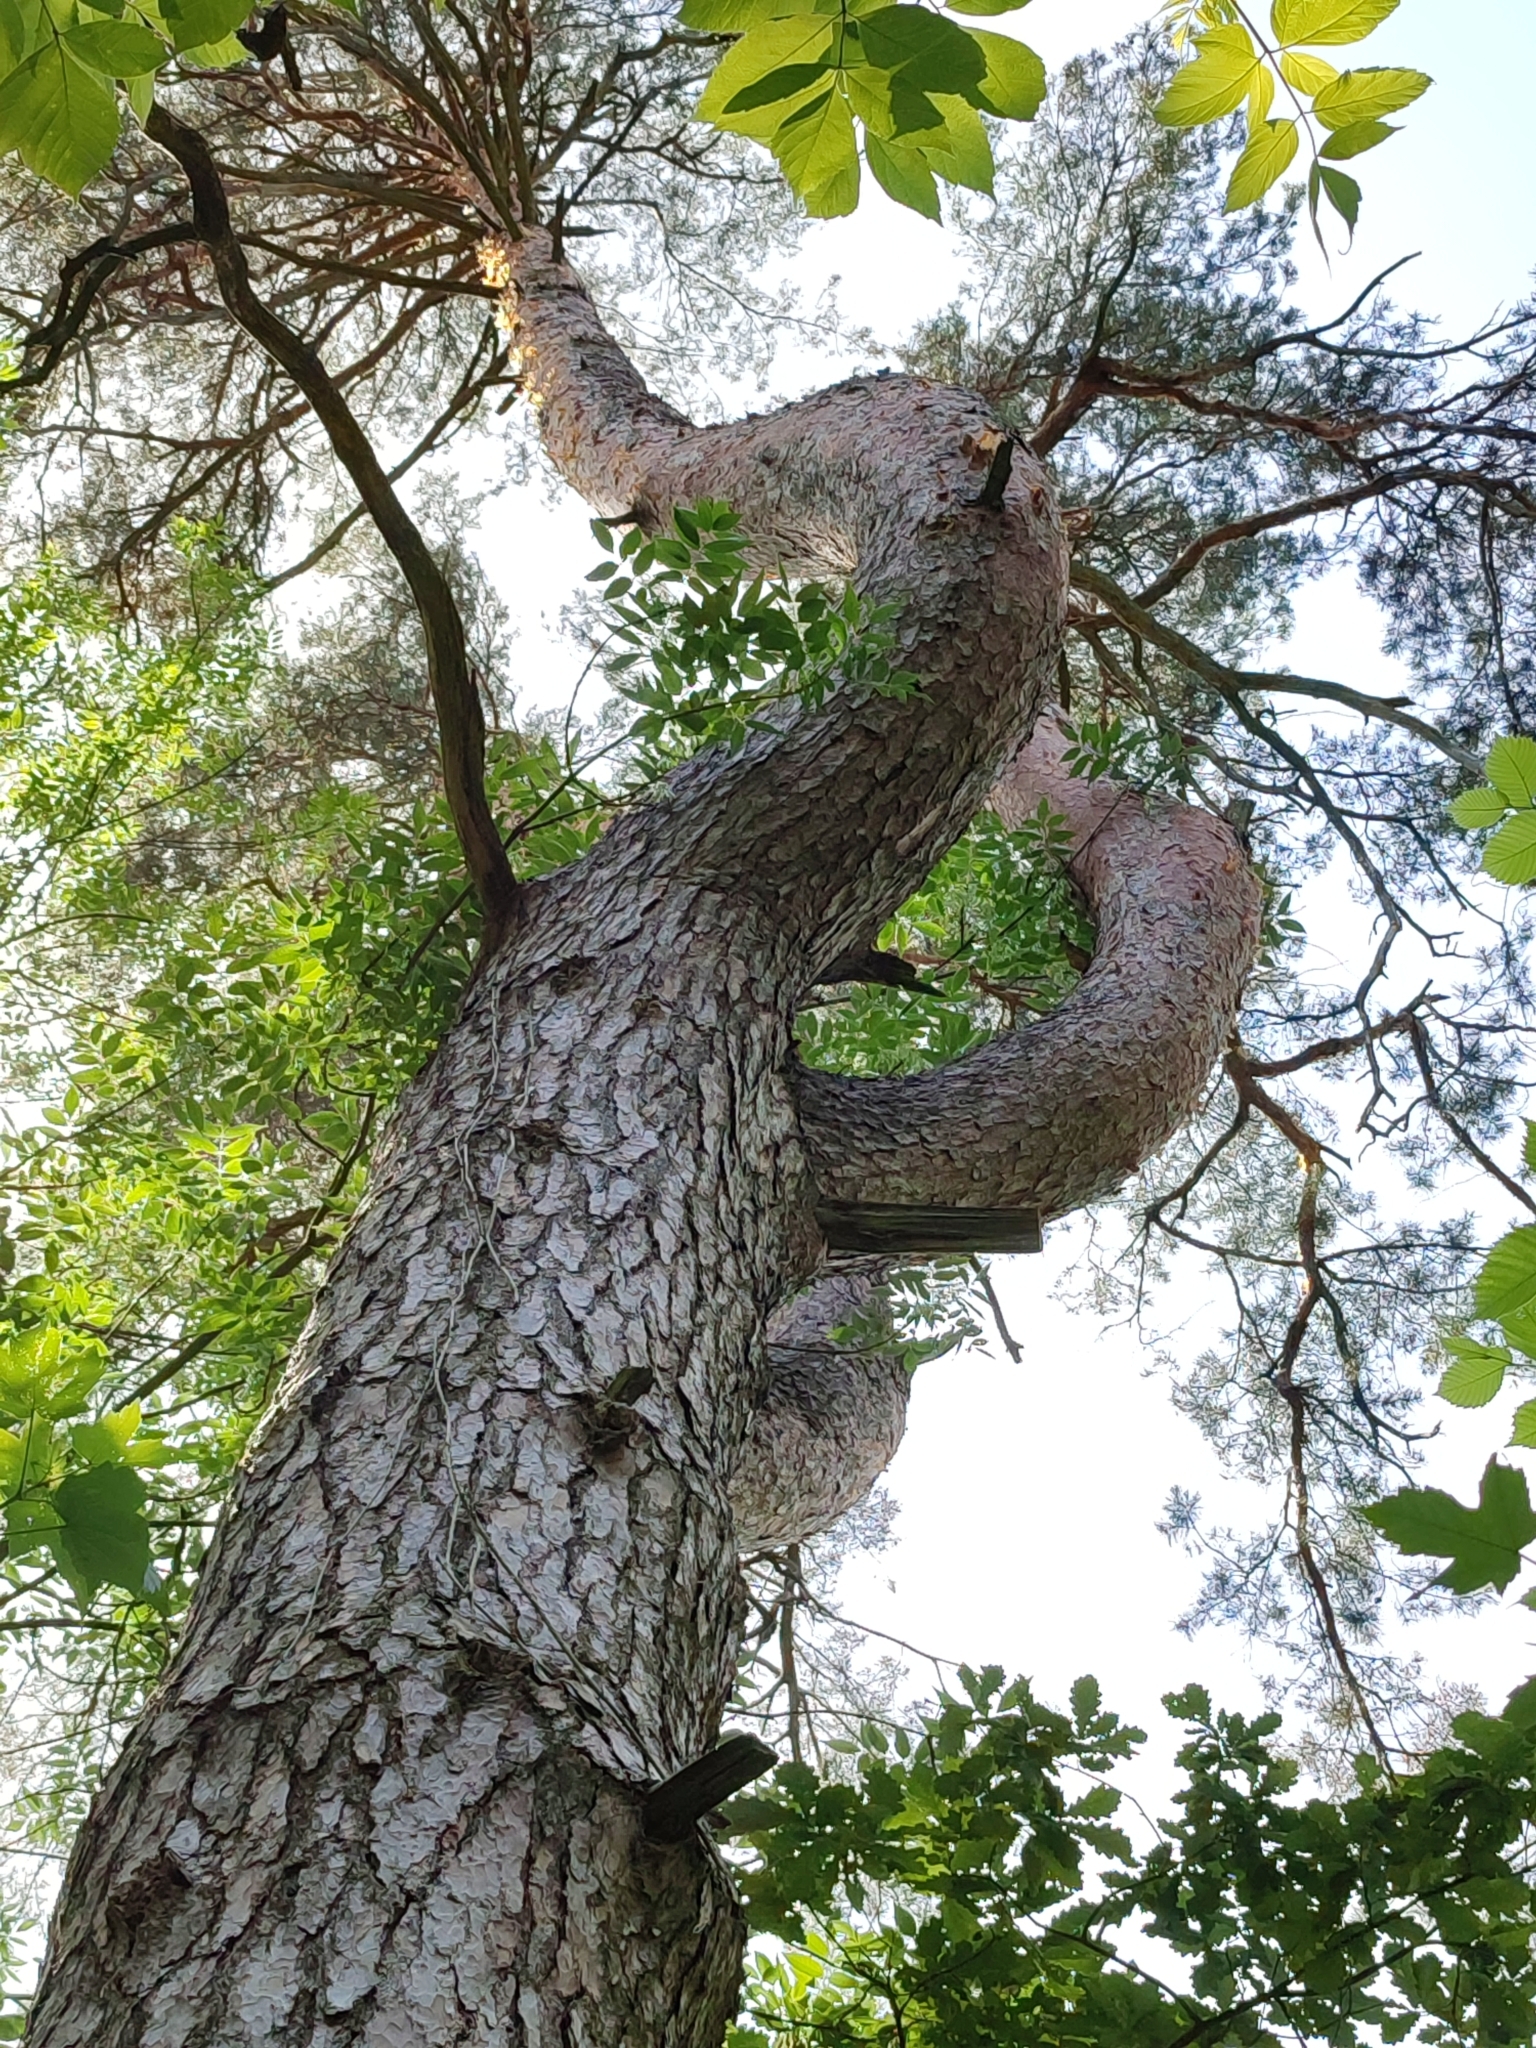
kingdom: Plantae
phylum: Tracheophyta
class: Pinopsida
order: Pinales
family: Pinaceae
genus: Pinus
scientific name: Pinus sylvestris
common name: Scots pine
